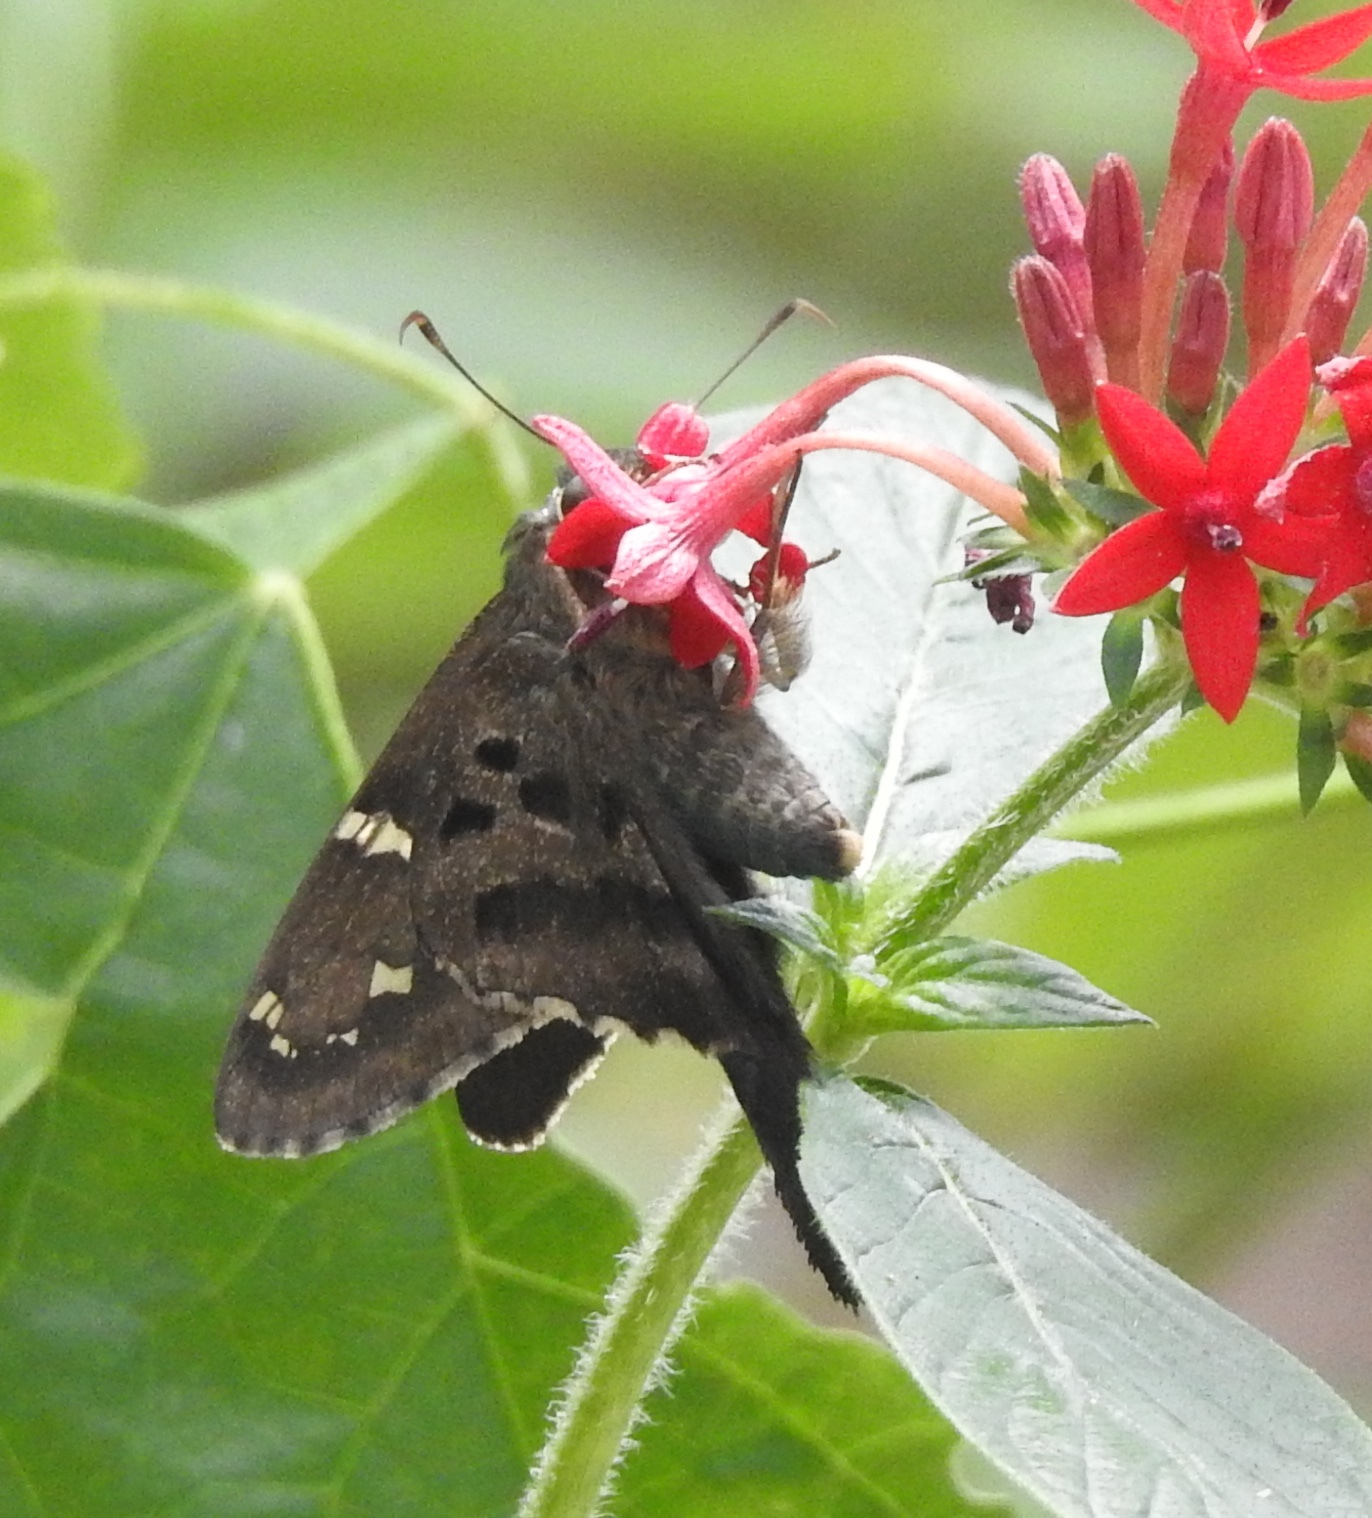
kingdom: Animalia
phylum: Arthropoda
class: Insecta
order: Lepidoptera
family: Hesperiidae
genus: Urbanus
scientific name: Urbanus proteus
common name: Long-tailed skipper
